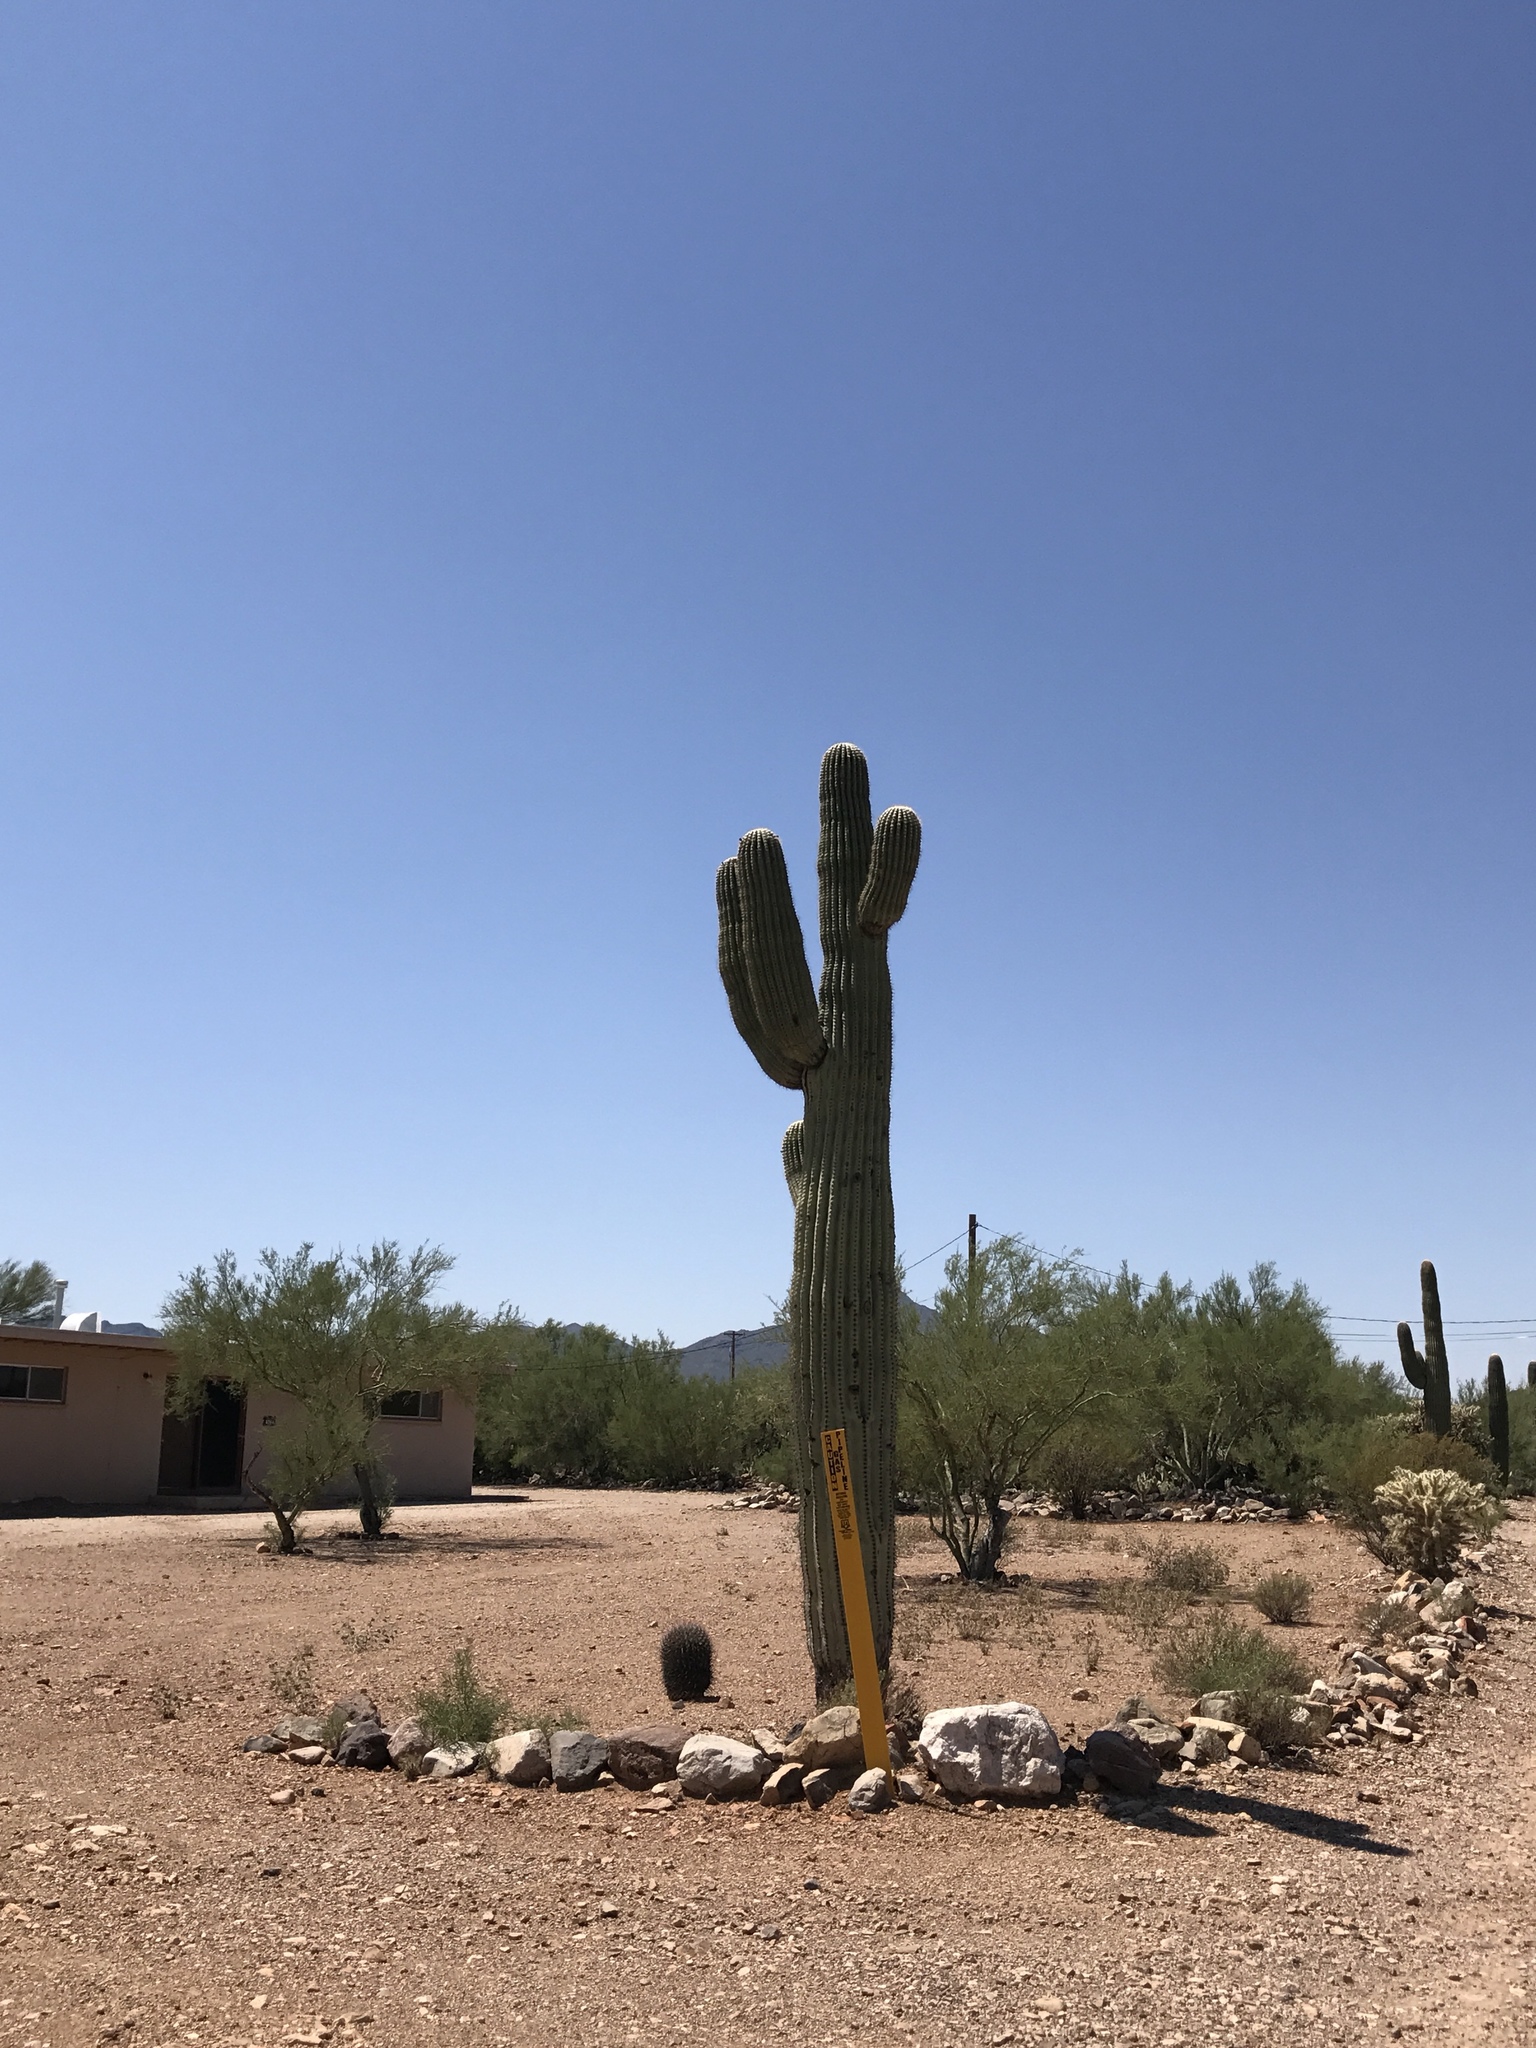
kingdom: Plantae
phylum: Tracheophyta
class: Magnoliopsida
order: Caryophyllales
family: Cactaceae
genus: Carnegiea
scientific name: Carnegiea gigantea
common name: Saguaro
